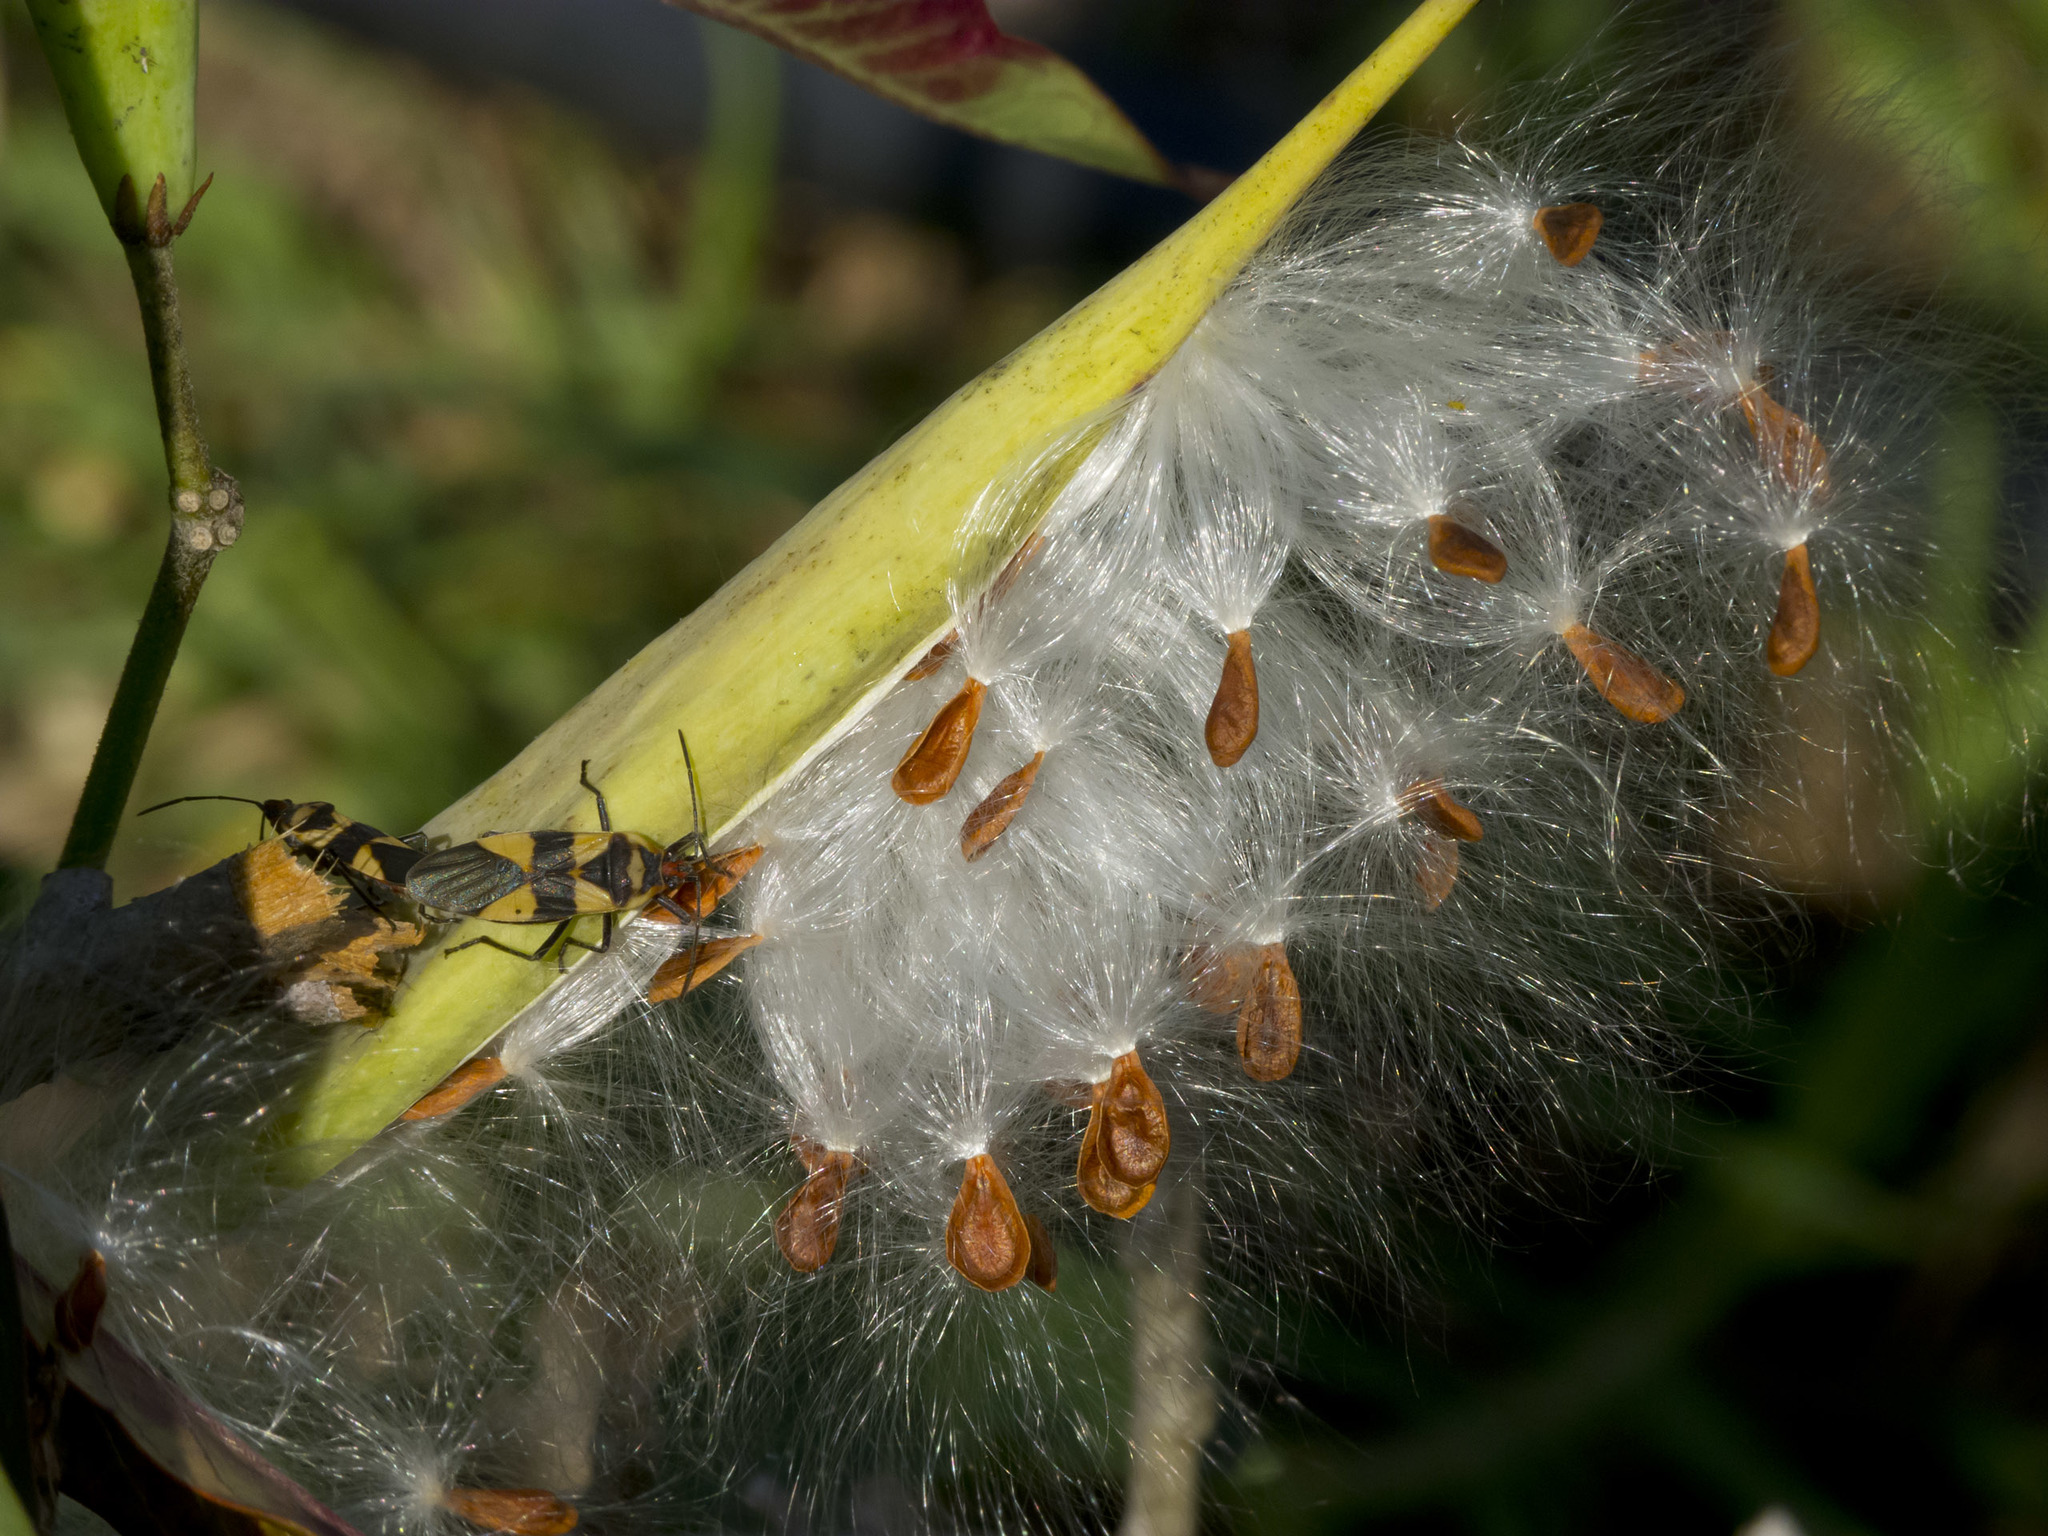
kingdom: Plantae
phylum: Tracheophyta
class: Magnoliopsida
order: Gentianales
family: Apocynaceae
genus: Asclepias
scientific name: Asclepias curassavica
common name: Bloodflower
